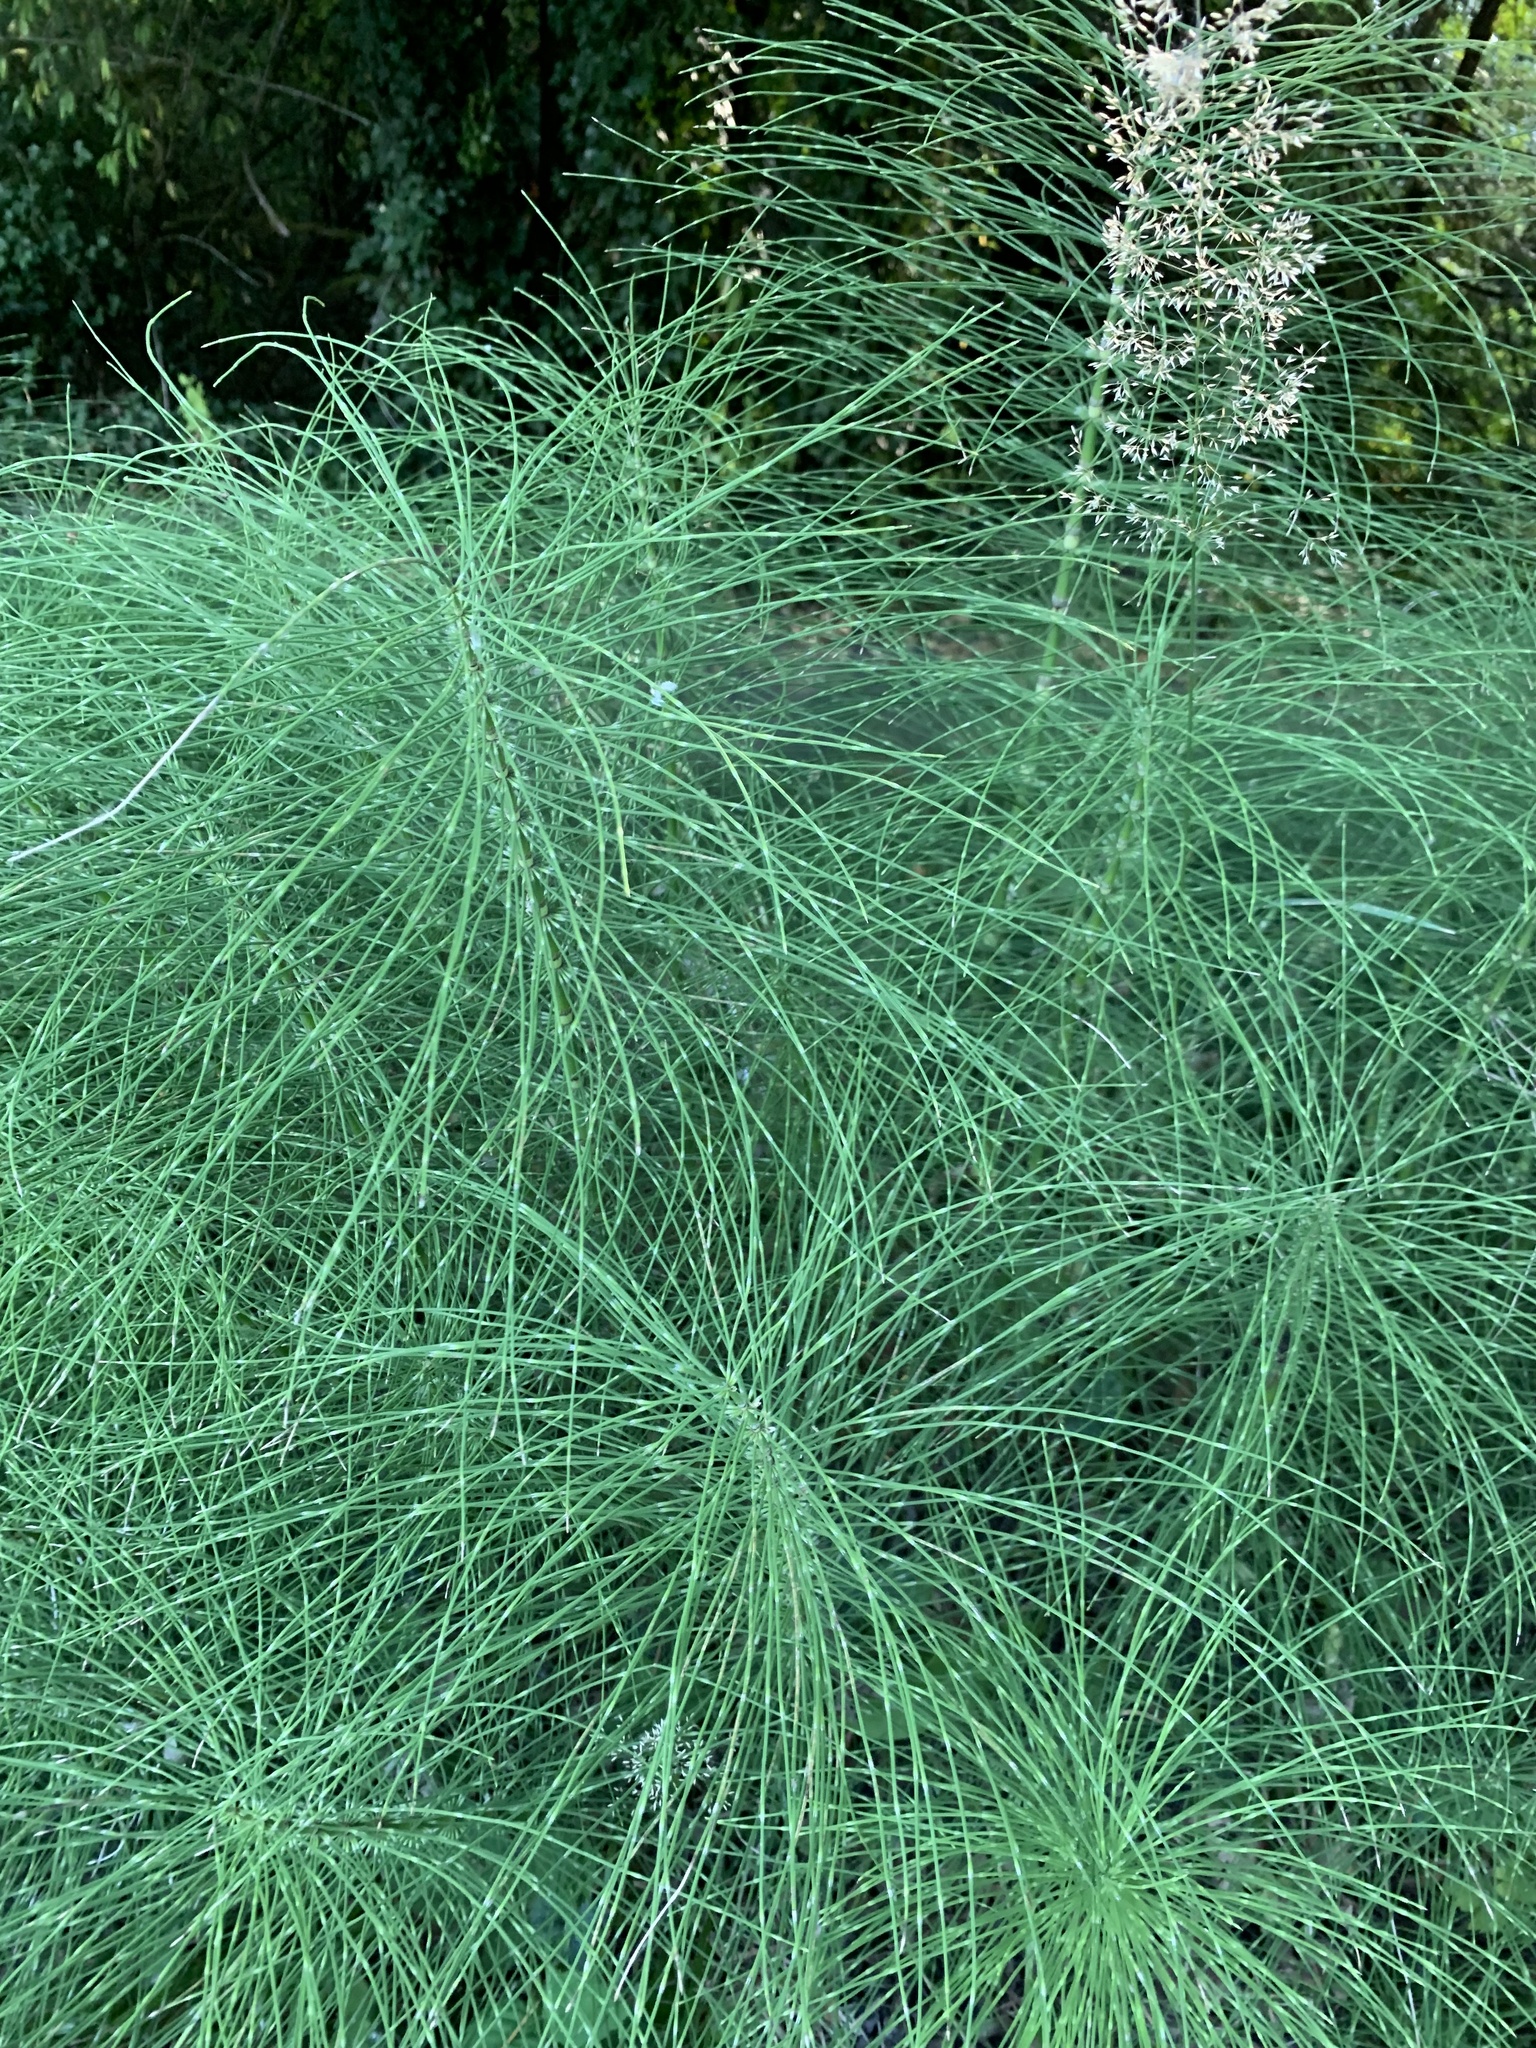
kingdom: Plantae
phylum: Tracheophyta
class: Polypodiopsida
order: Equisetales
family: Equisetaceae
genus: Equisetum
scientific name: Equisetum telmateia
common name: Great horsetail
